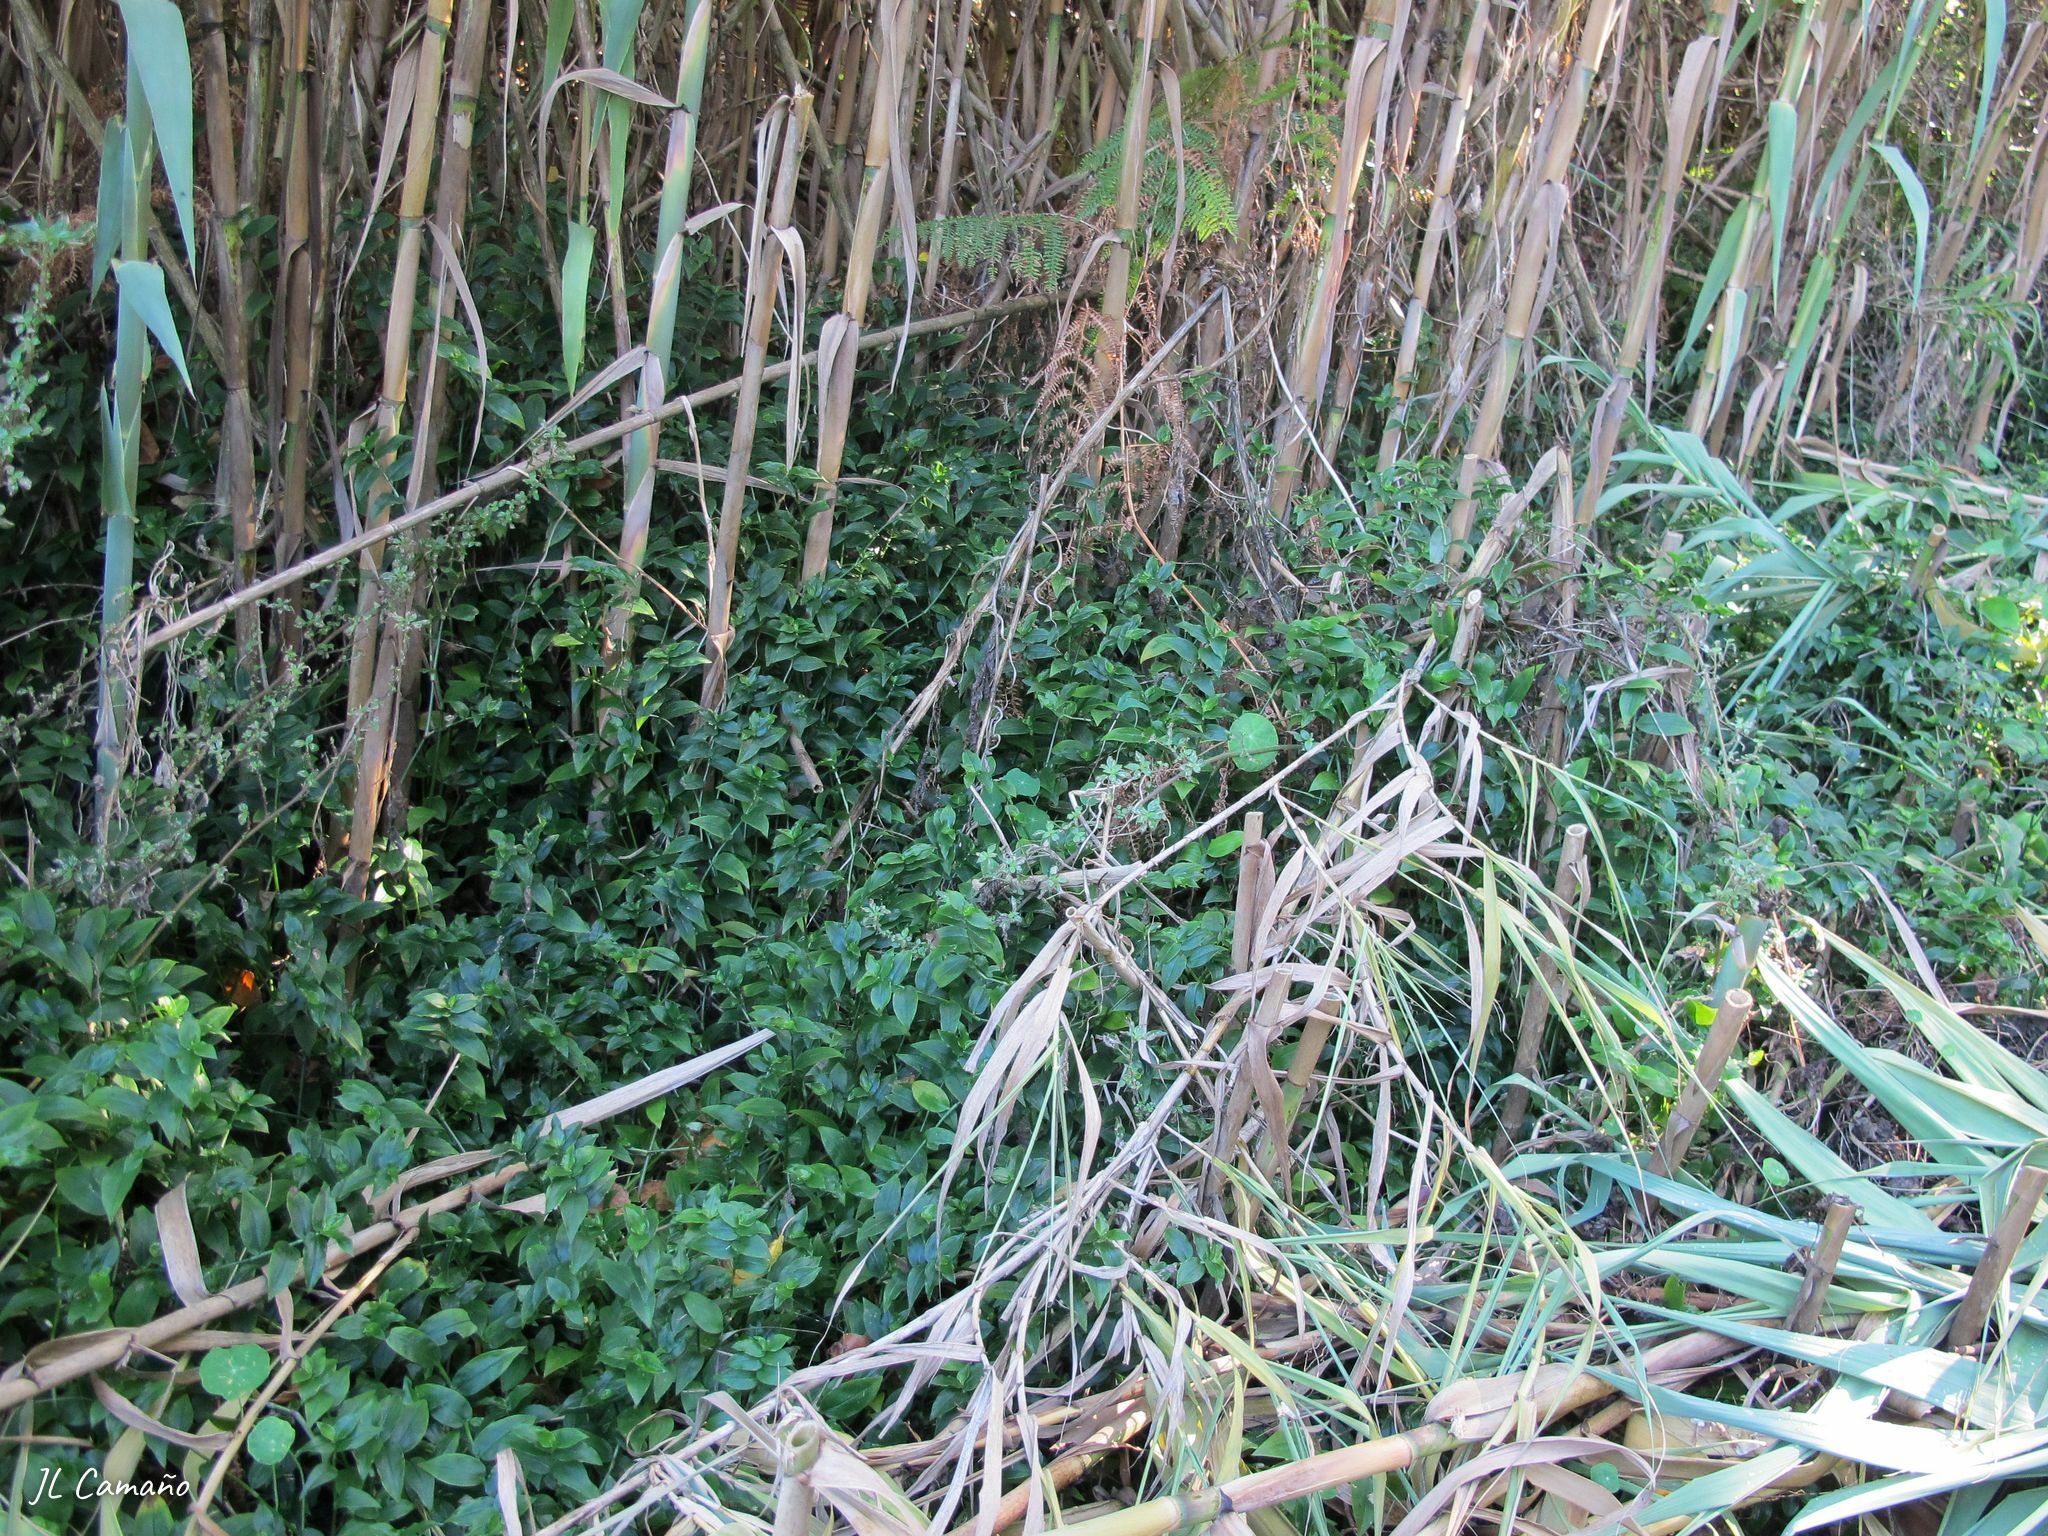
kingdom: Plantae
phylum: Tracheophyta
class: Liliopsida
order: Commelinales
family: Commelinaceae
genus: Tradescantia
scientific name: Tradescantia fluminensis
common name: Wandering-jew
